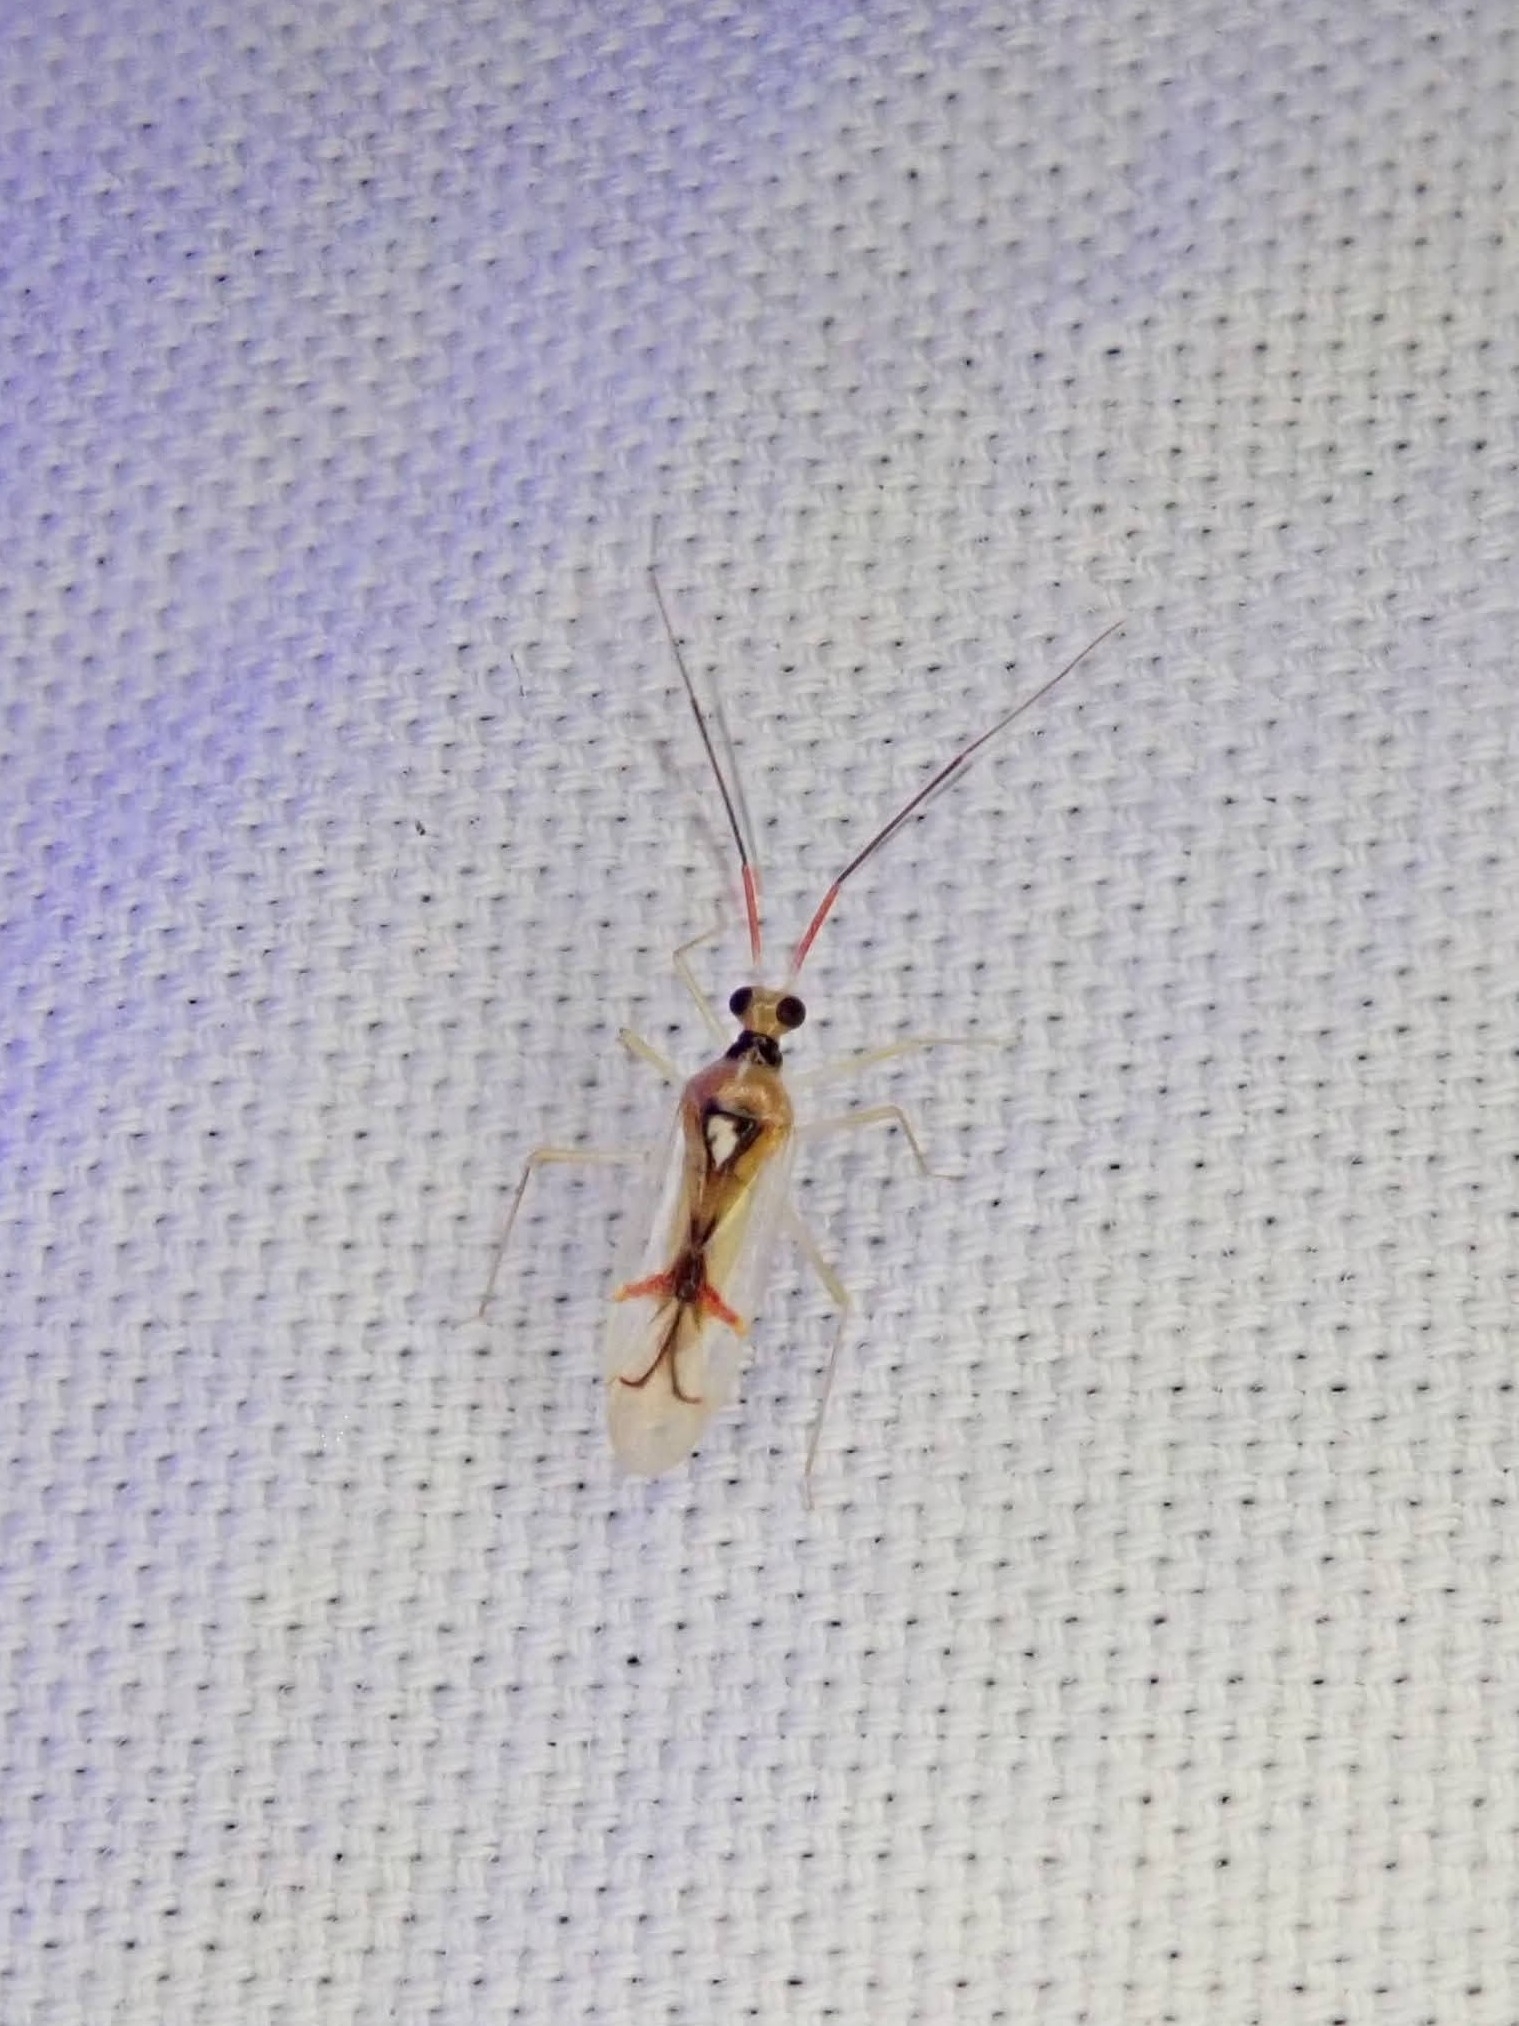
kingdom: Animalia
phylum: Arthropoda
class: Insecta
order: Hemiptera
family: Miridae
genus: Hyaliodes
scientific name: Hyaliodes harti
